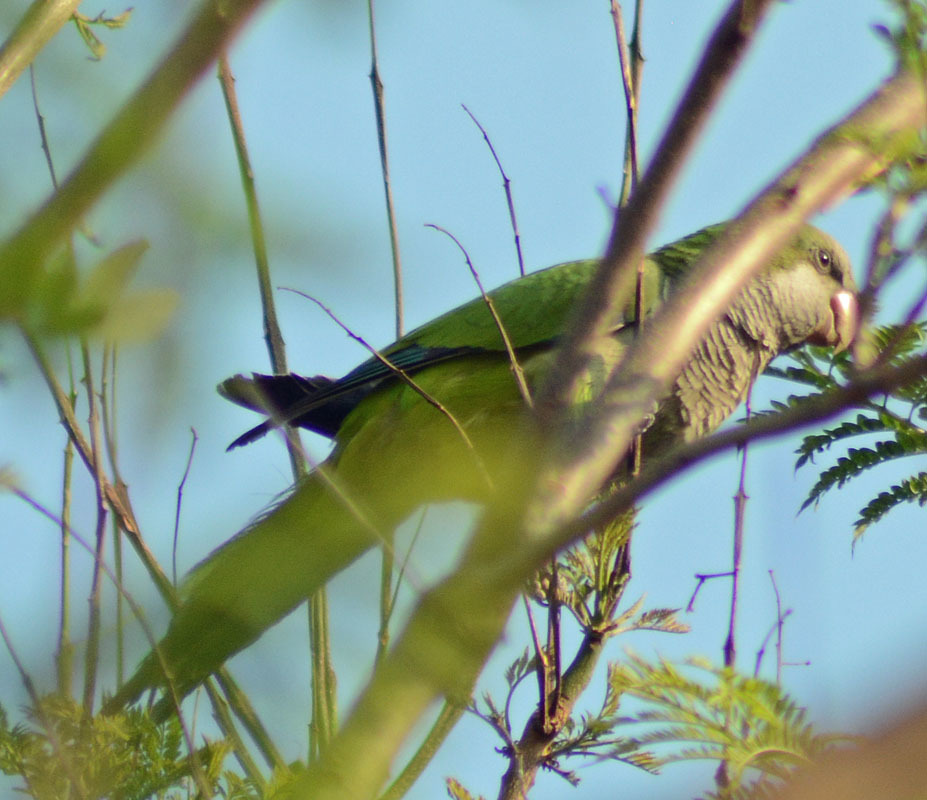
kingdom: Animalia
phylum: Chordata
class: Aves
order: Psittaciformes
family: Psittacidae
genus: Myiopsitta
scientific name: Myiopsitta monachus
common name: Monk parakeet
